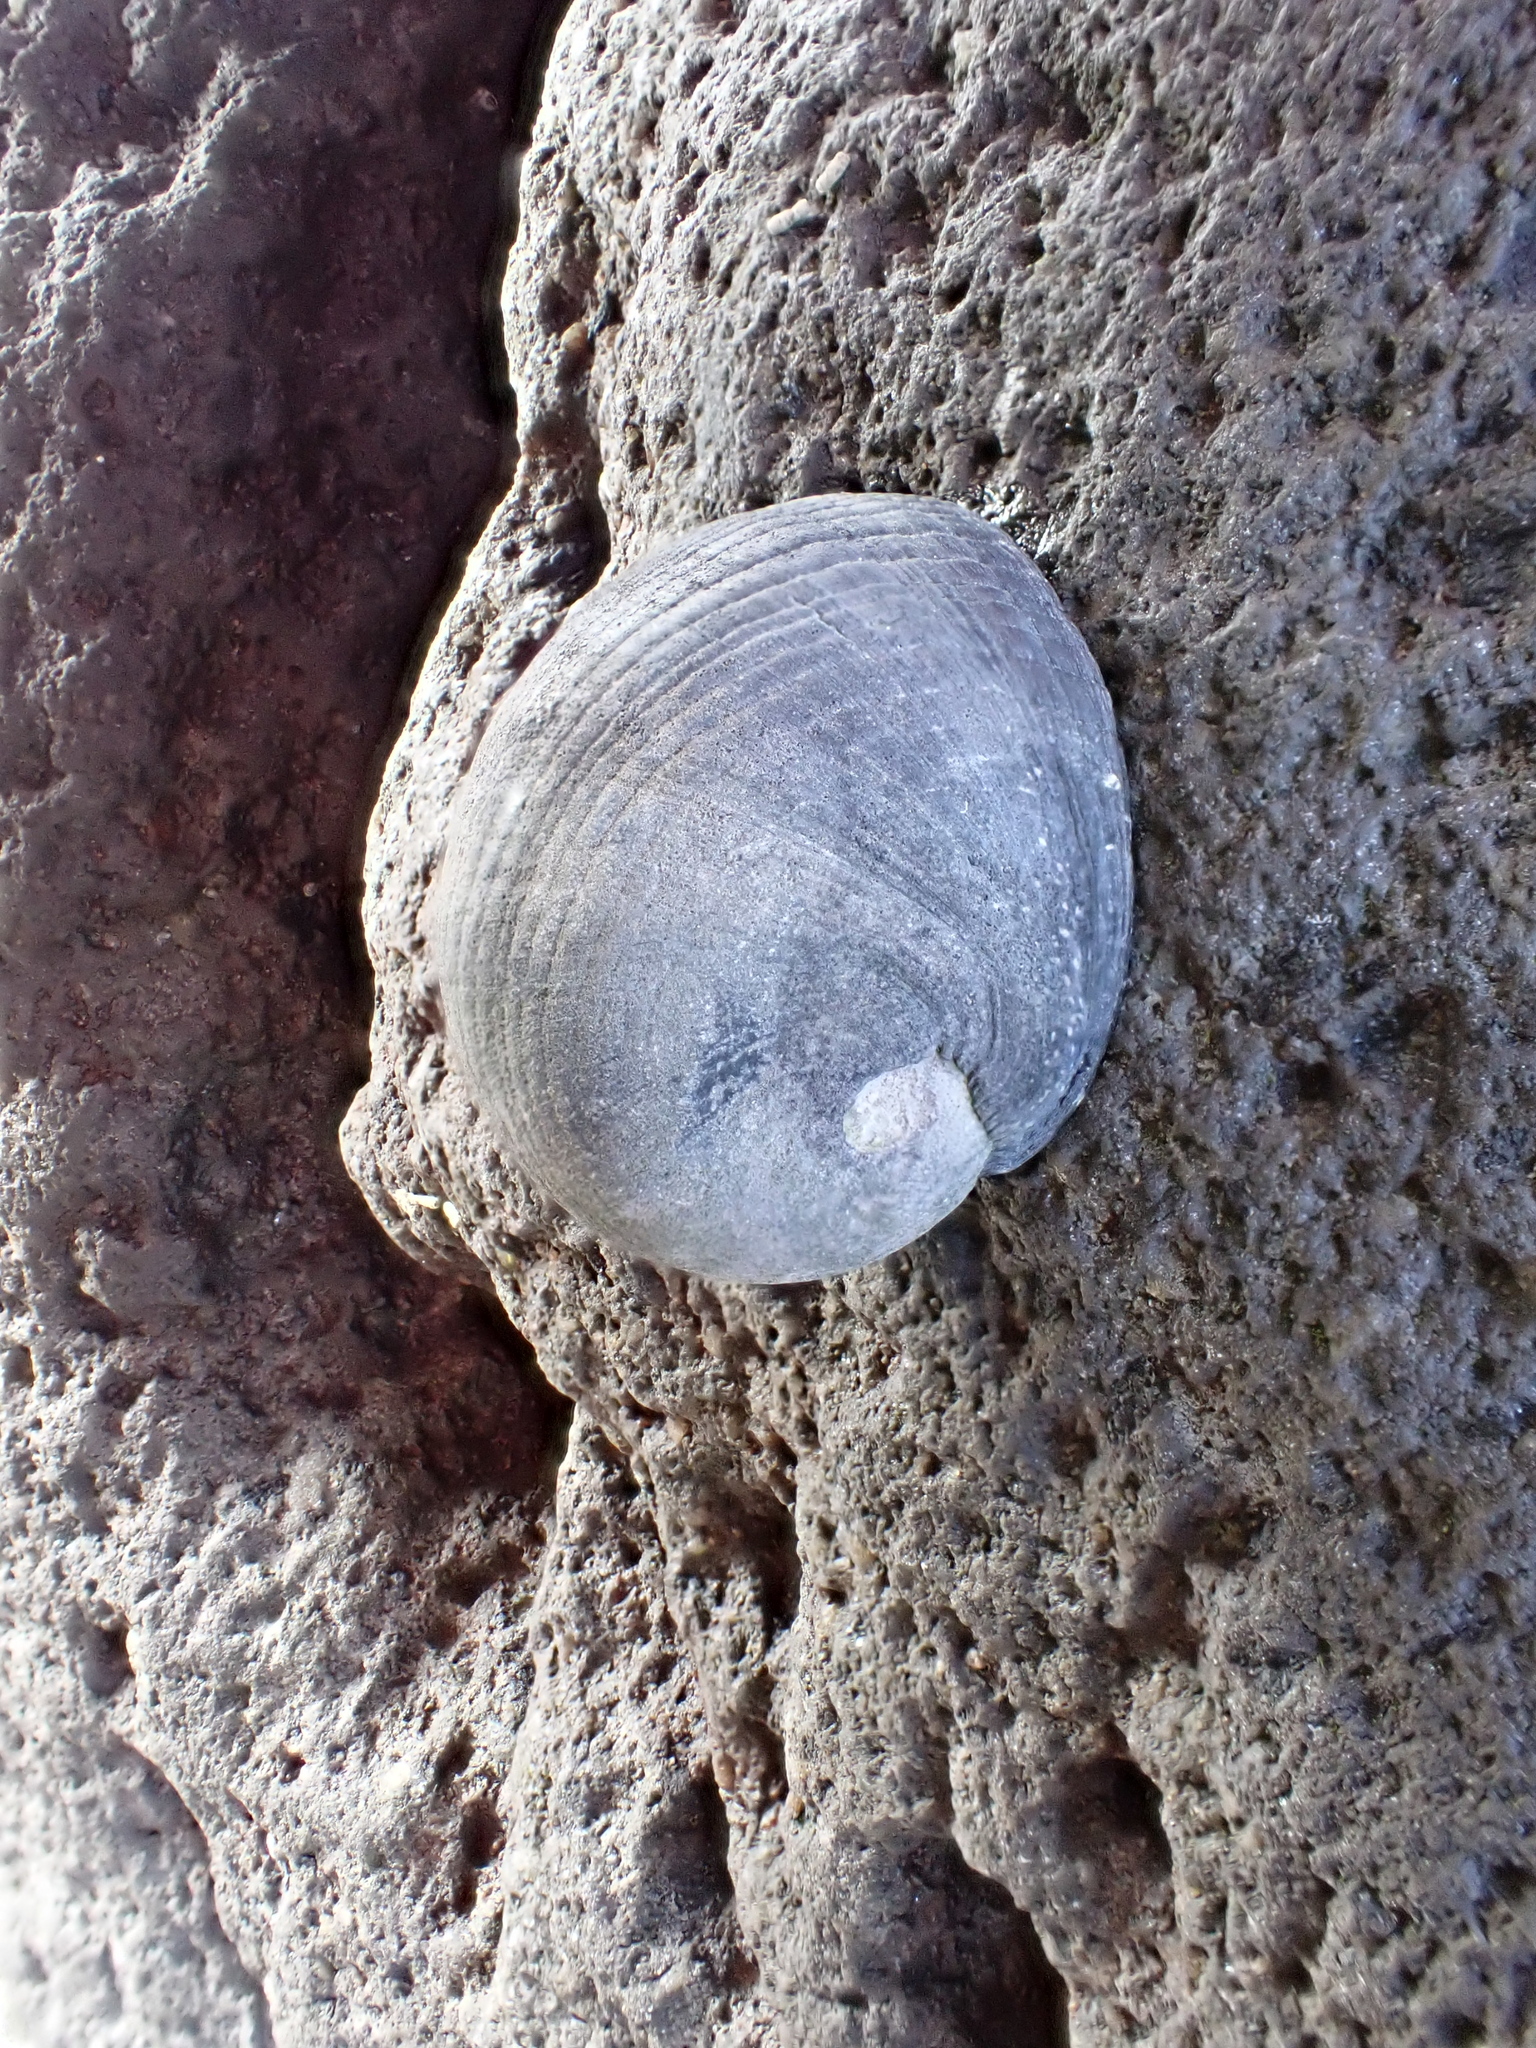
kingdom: Animalia
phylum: Mollusca
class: Gastropoda
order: Cycloneritida
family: Neritidae
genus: Nerita
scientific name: Nerita melanotragus
